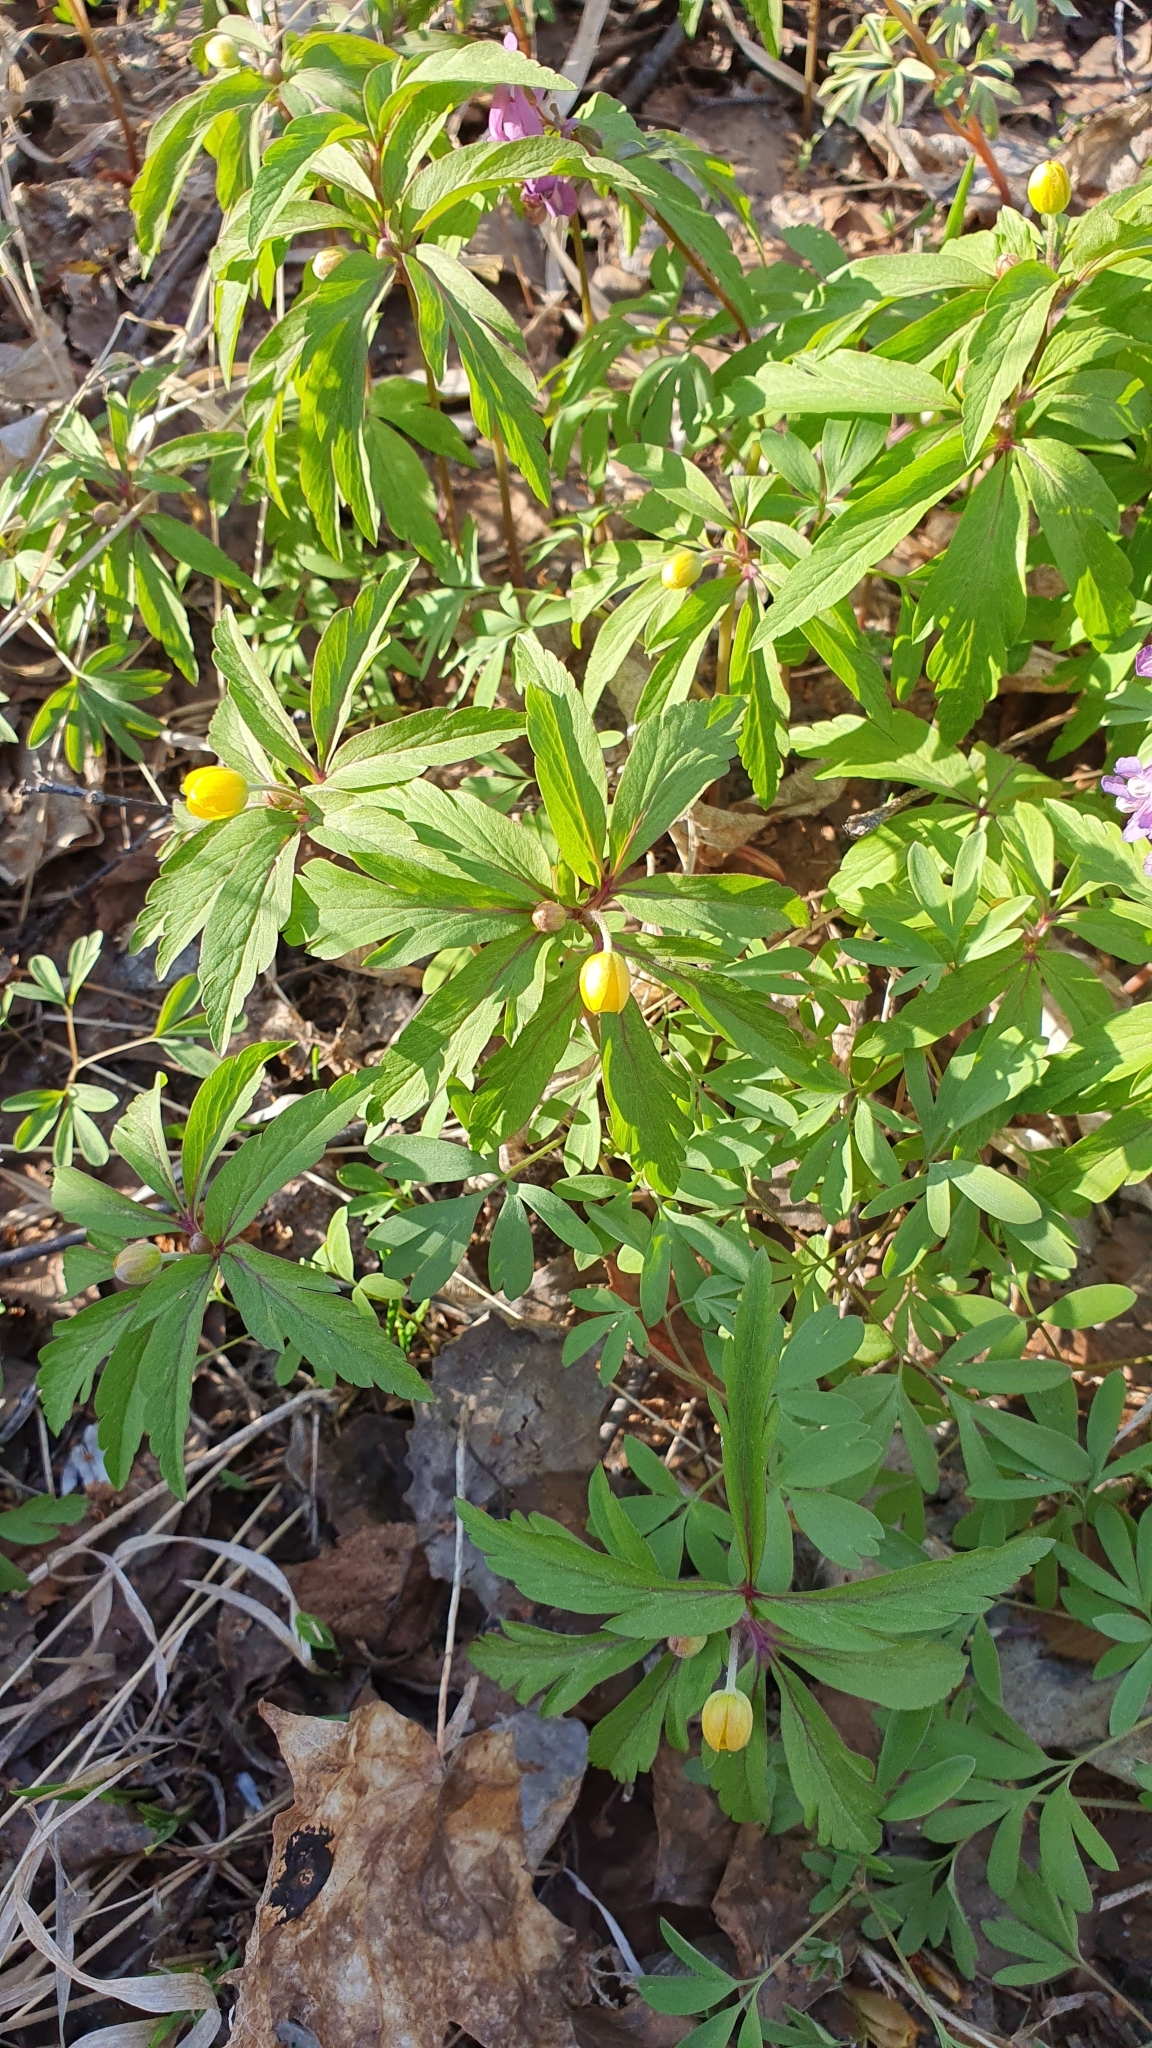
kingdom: Plantae
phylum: Tracheophyta
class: Magnoliopsida
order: Ranunculales
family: Ranunculaceae
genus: Anemone
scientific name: Anemone ranunculoides
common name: Yellow anemone
